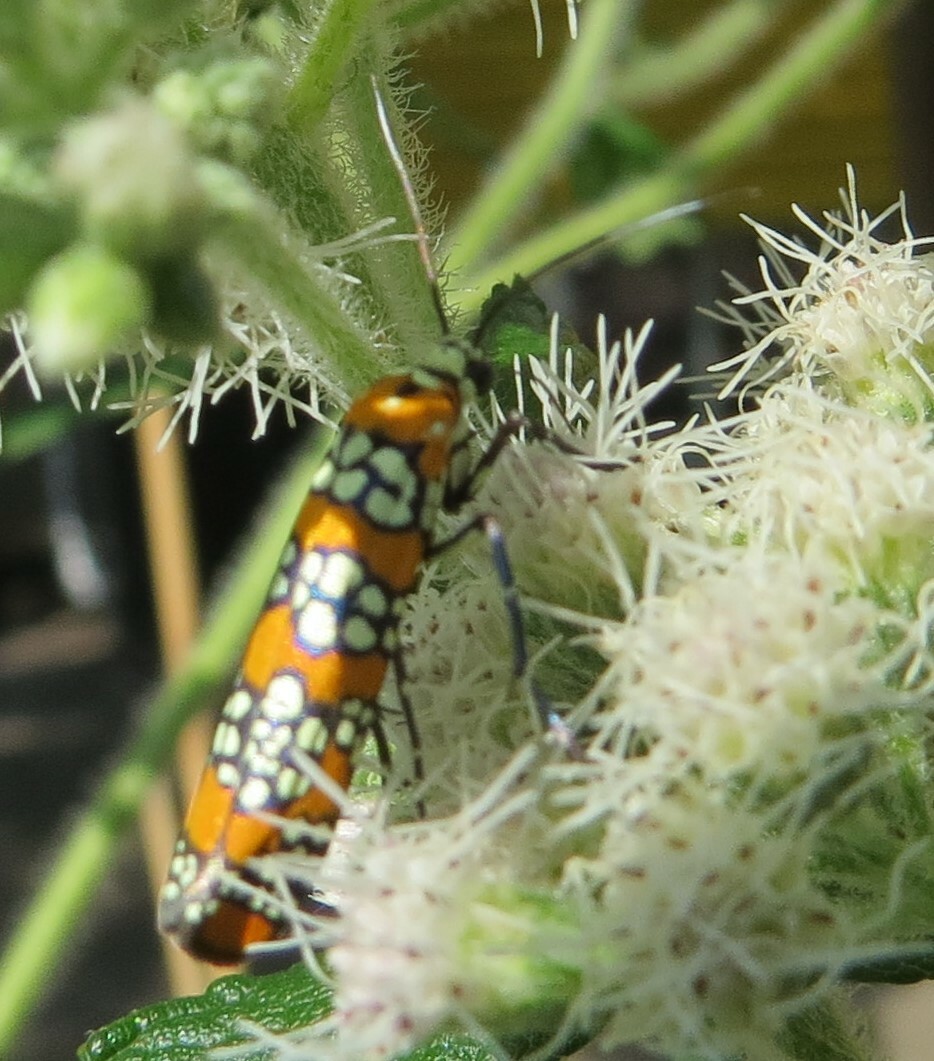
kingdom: Animalia
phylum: Arthropoda
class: Insecta
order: Lepidoptera
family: Attevidae
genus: Atteva
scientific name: Atteva punctella
